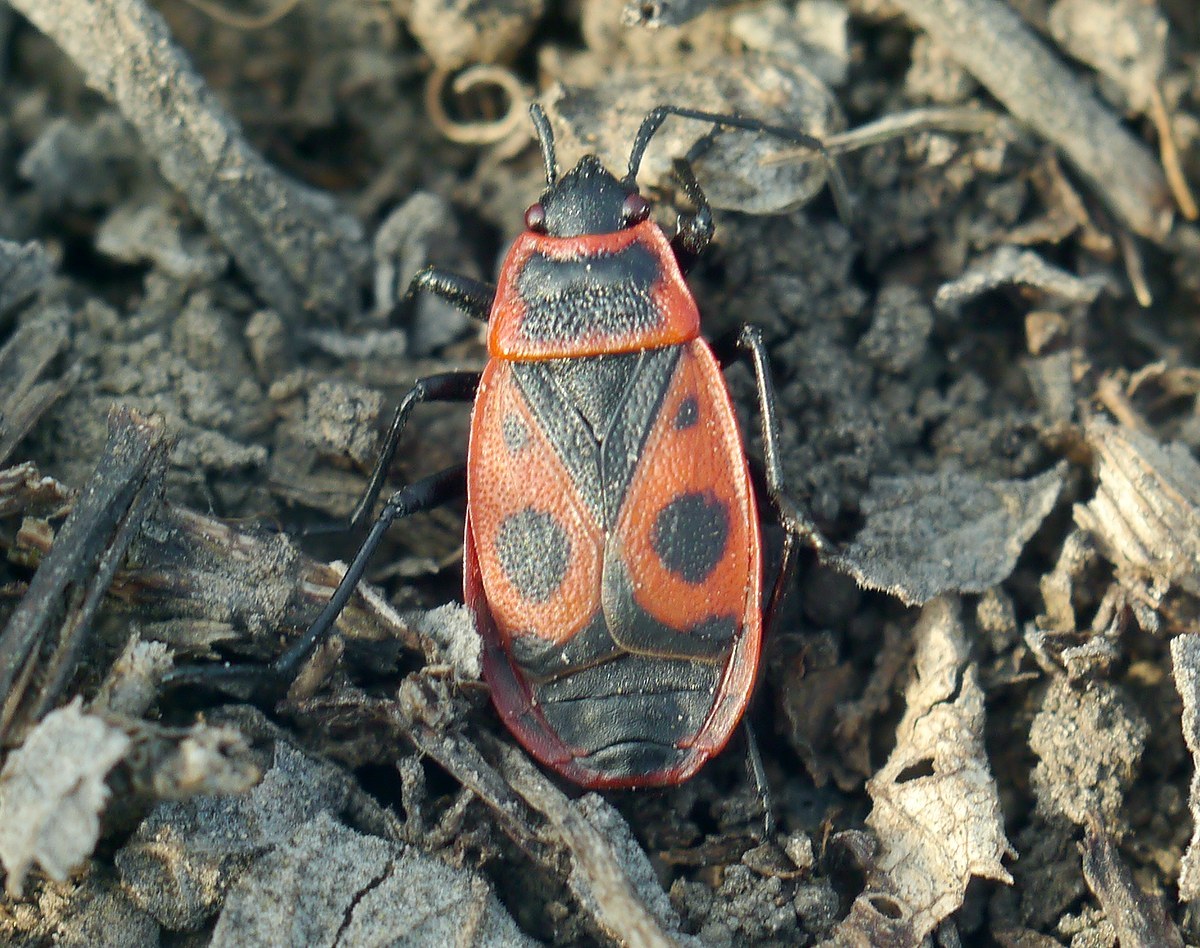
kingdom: Animalia
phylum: Arthropoda
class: Insecta
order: Hemiptera
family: Pyrrhocoridae
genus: Pyrrhocoris
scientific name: Pyrrhocoris apterus
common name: Firebug
